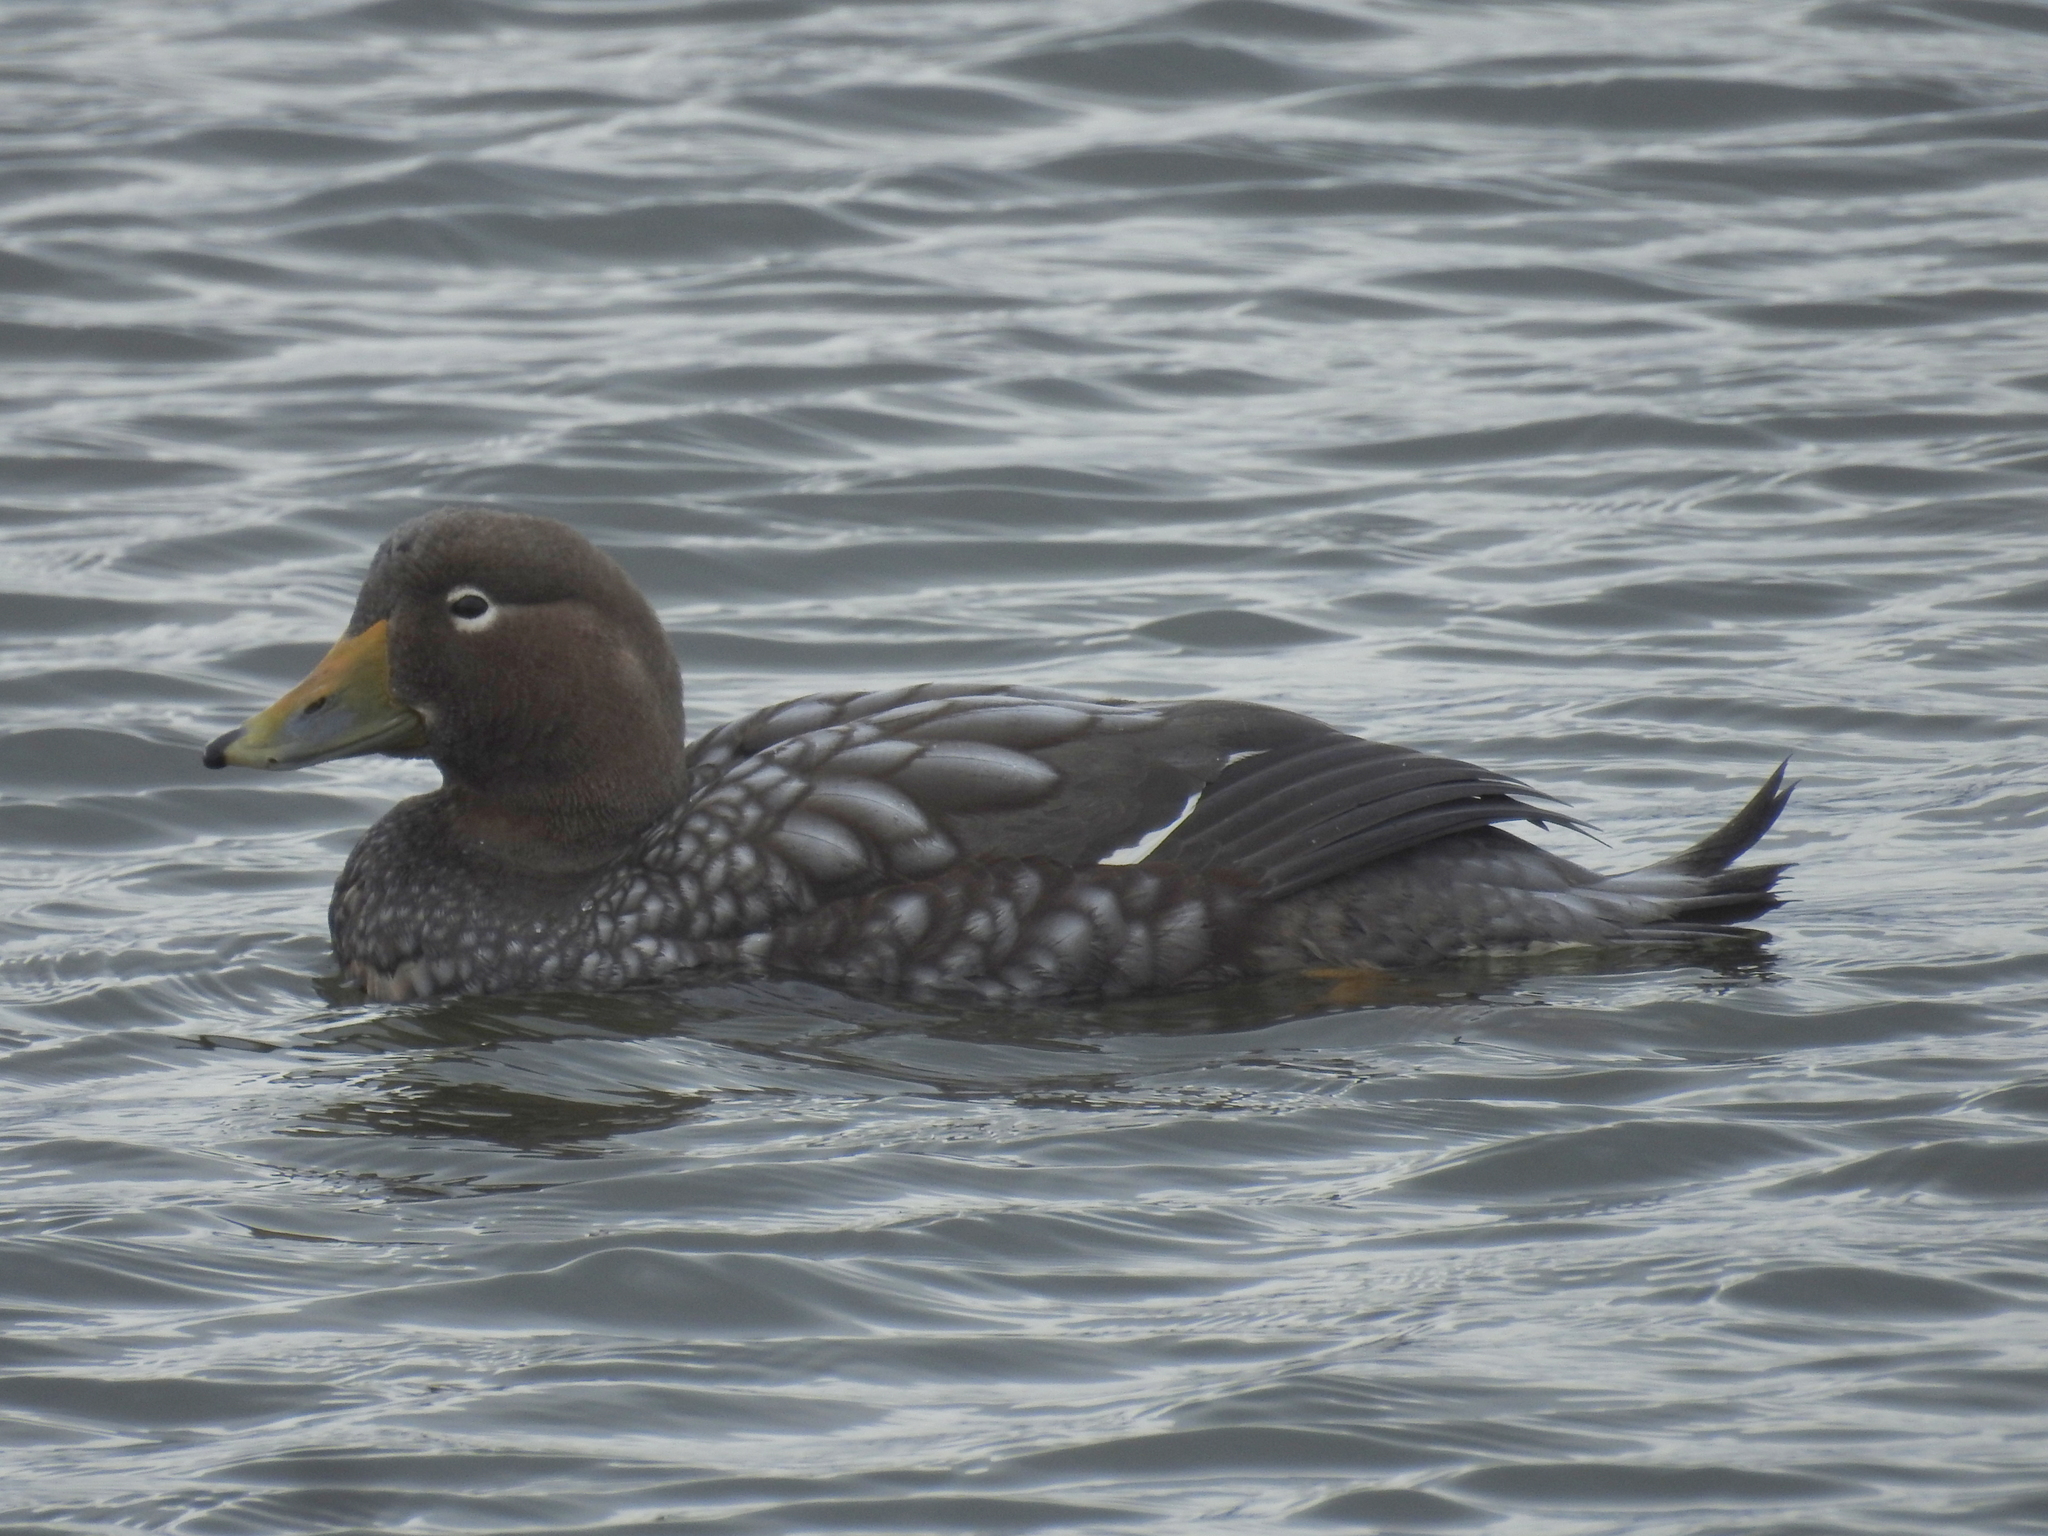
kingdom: Animalia
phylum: Chordata
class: Aves
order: Anseriformes
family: Anatidae
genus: Tachyeres
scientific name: Tachyeres patachonicus
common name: Flying steamer duck
